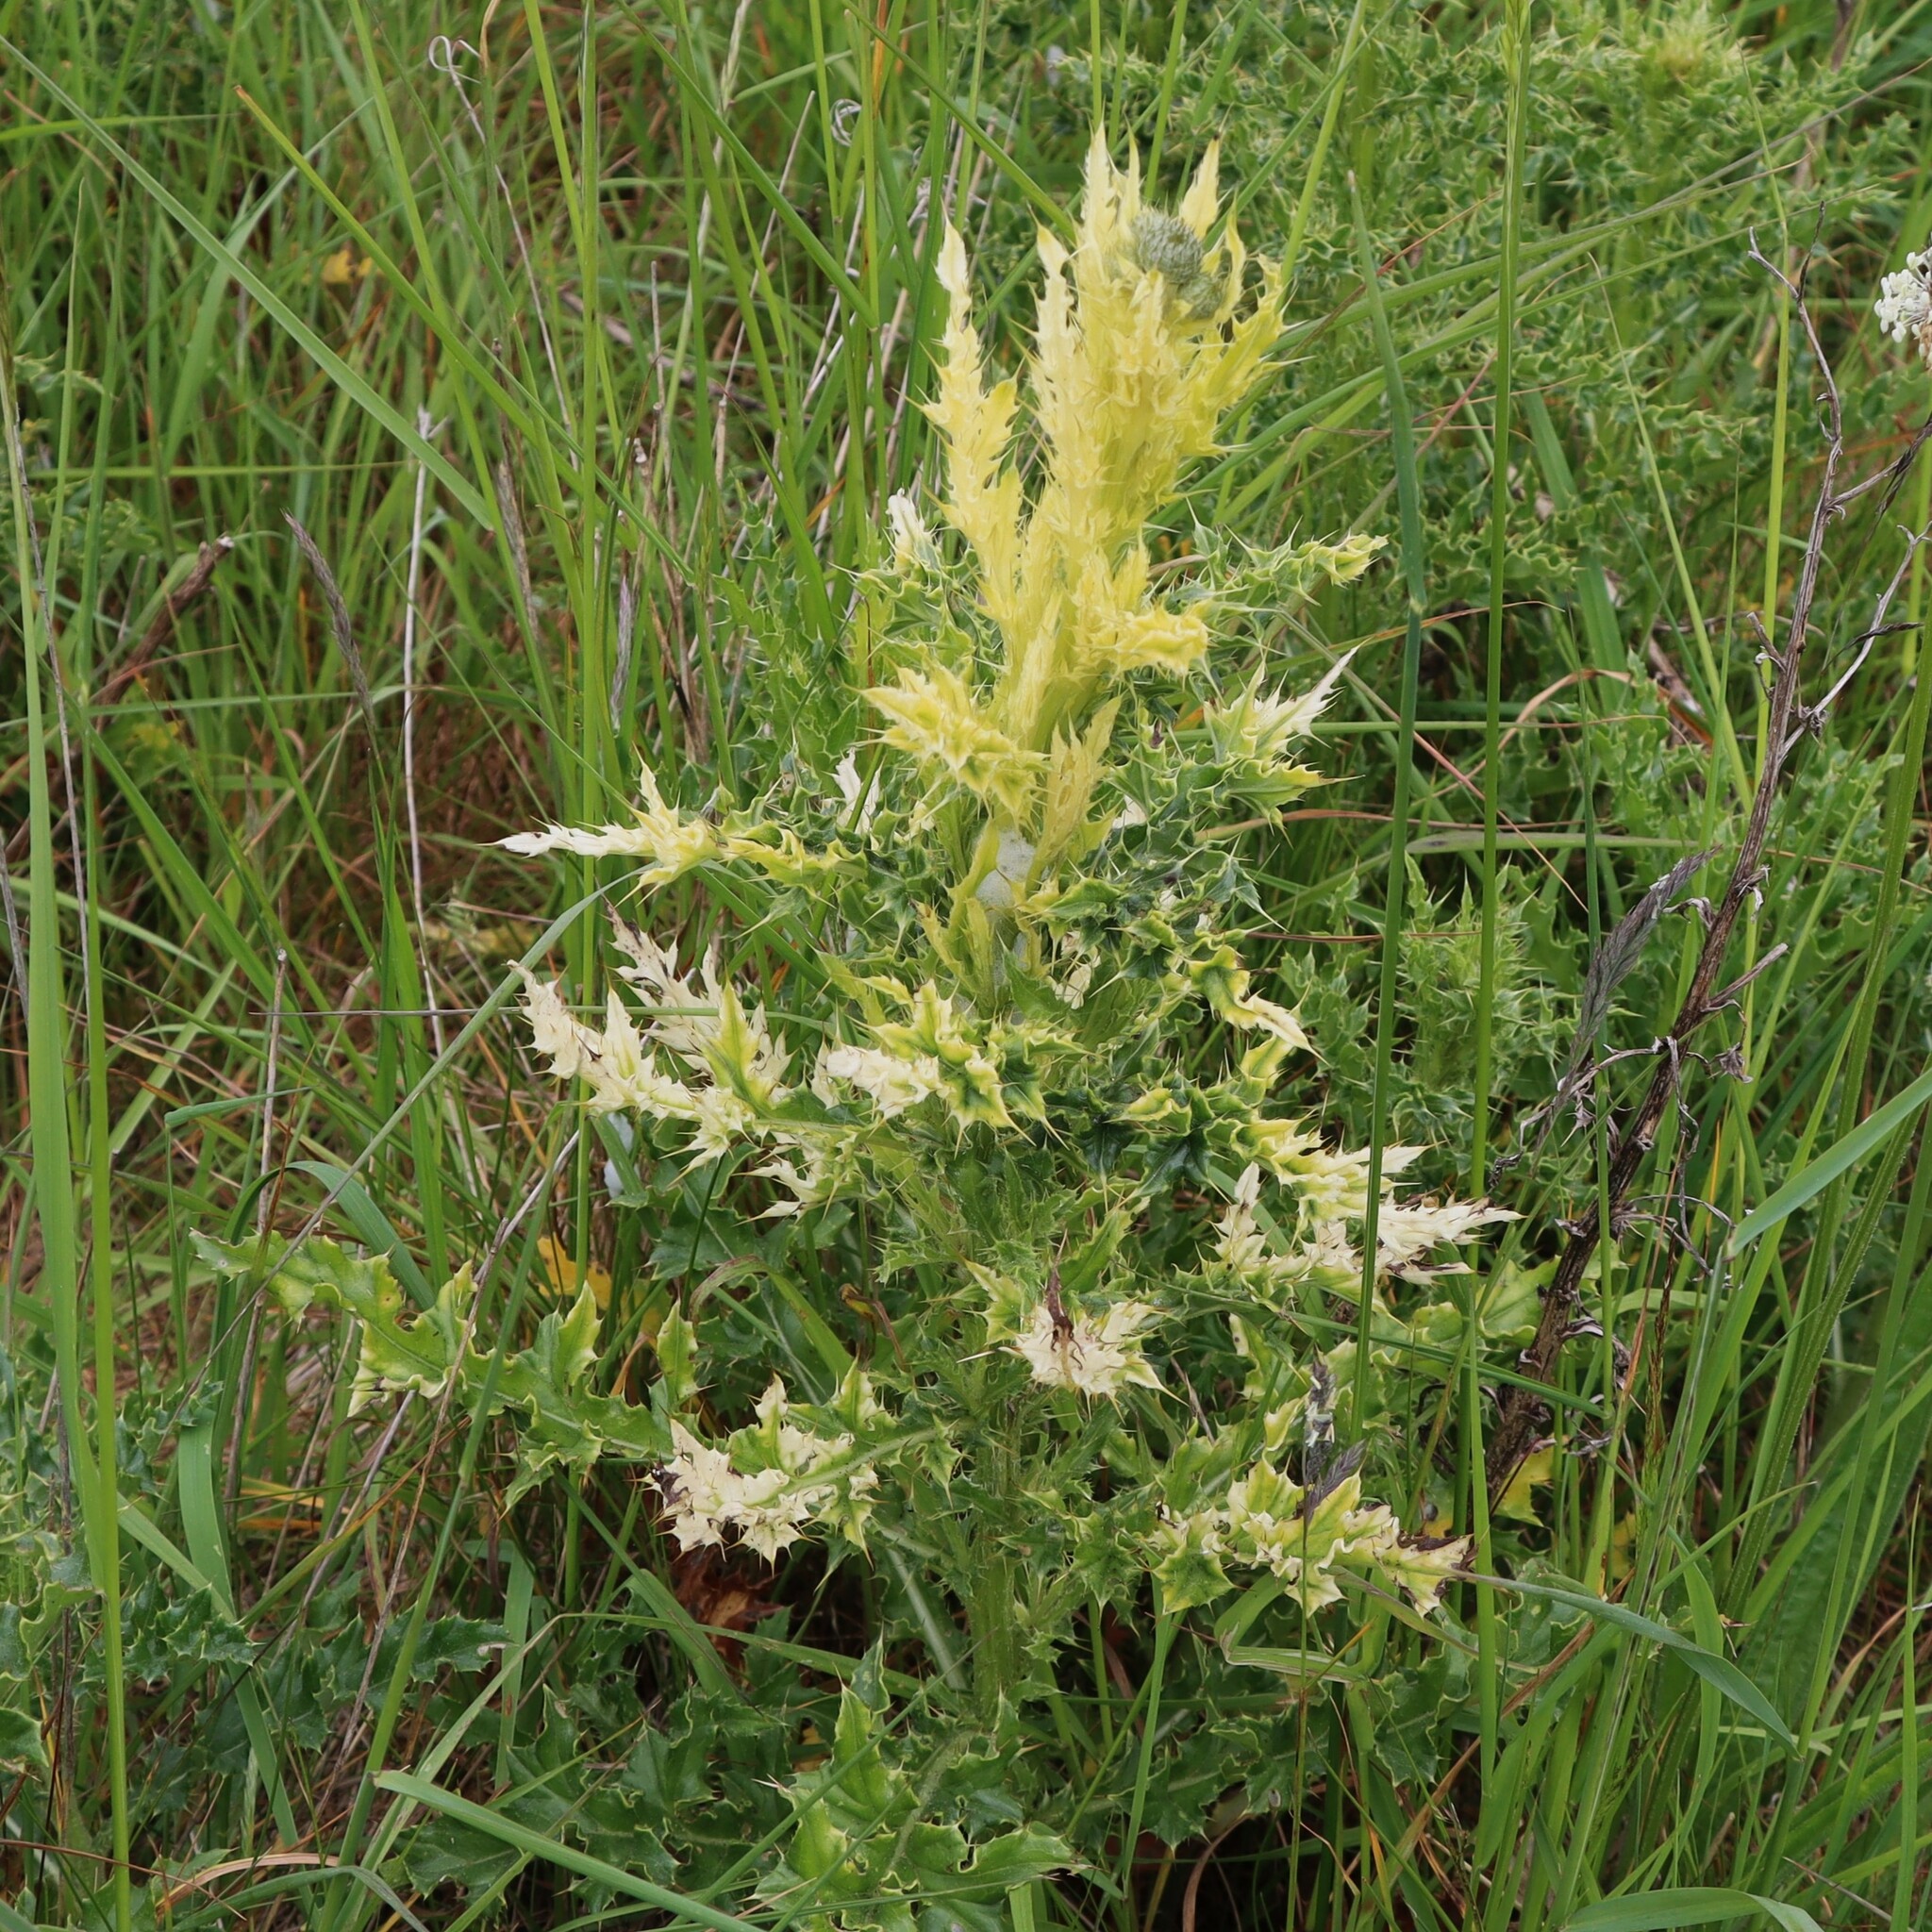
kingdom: Plantae
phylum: Tracheophyta
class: Magnoliopsida
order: Asterales
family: Asteraceae
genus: Cirsium
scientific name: Cirsium arvense
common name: Creeping thistle
